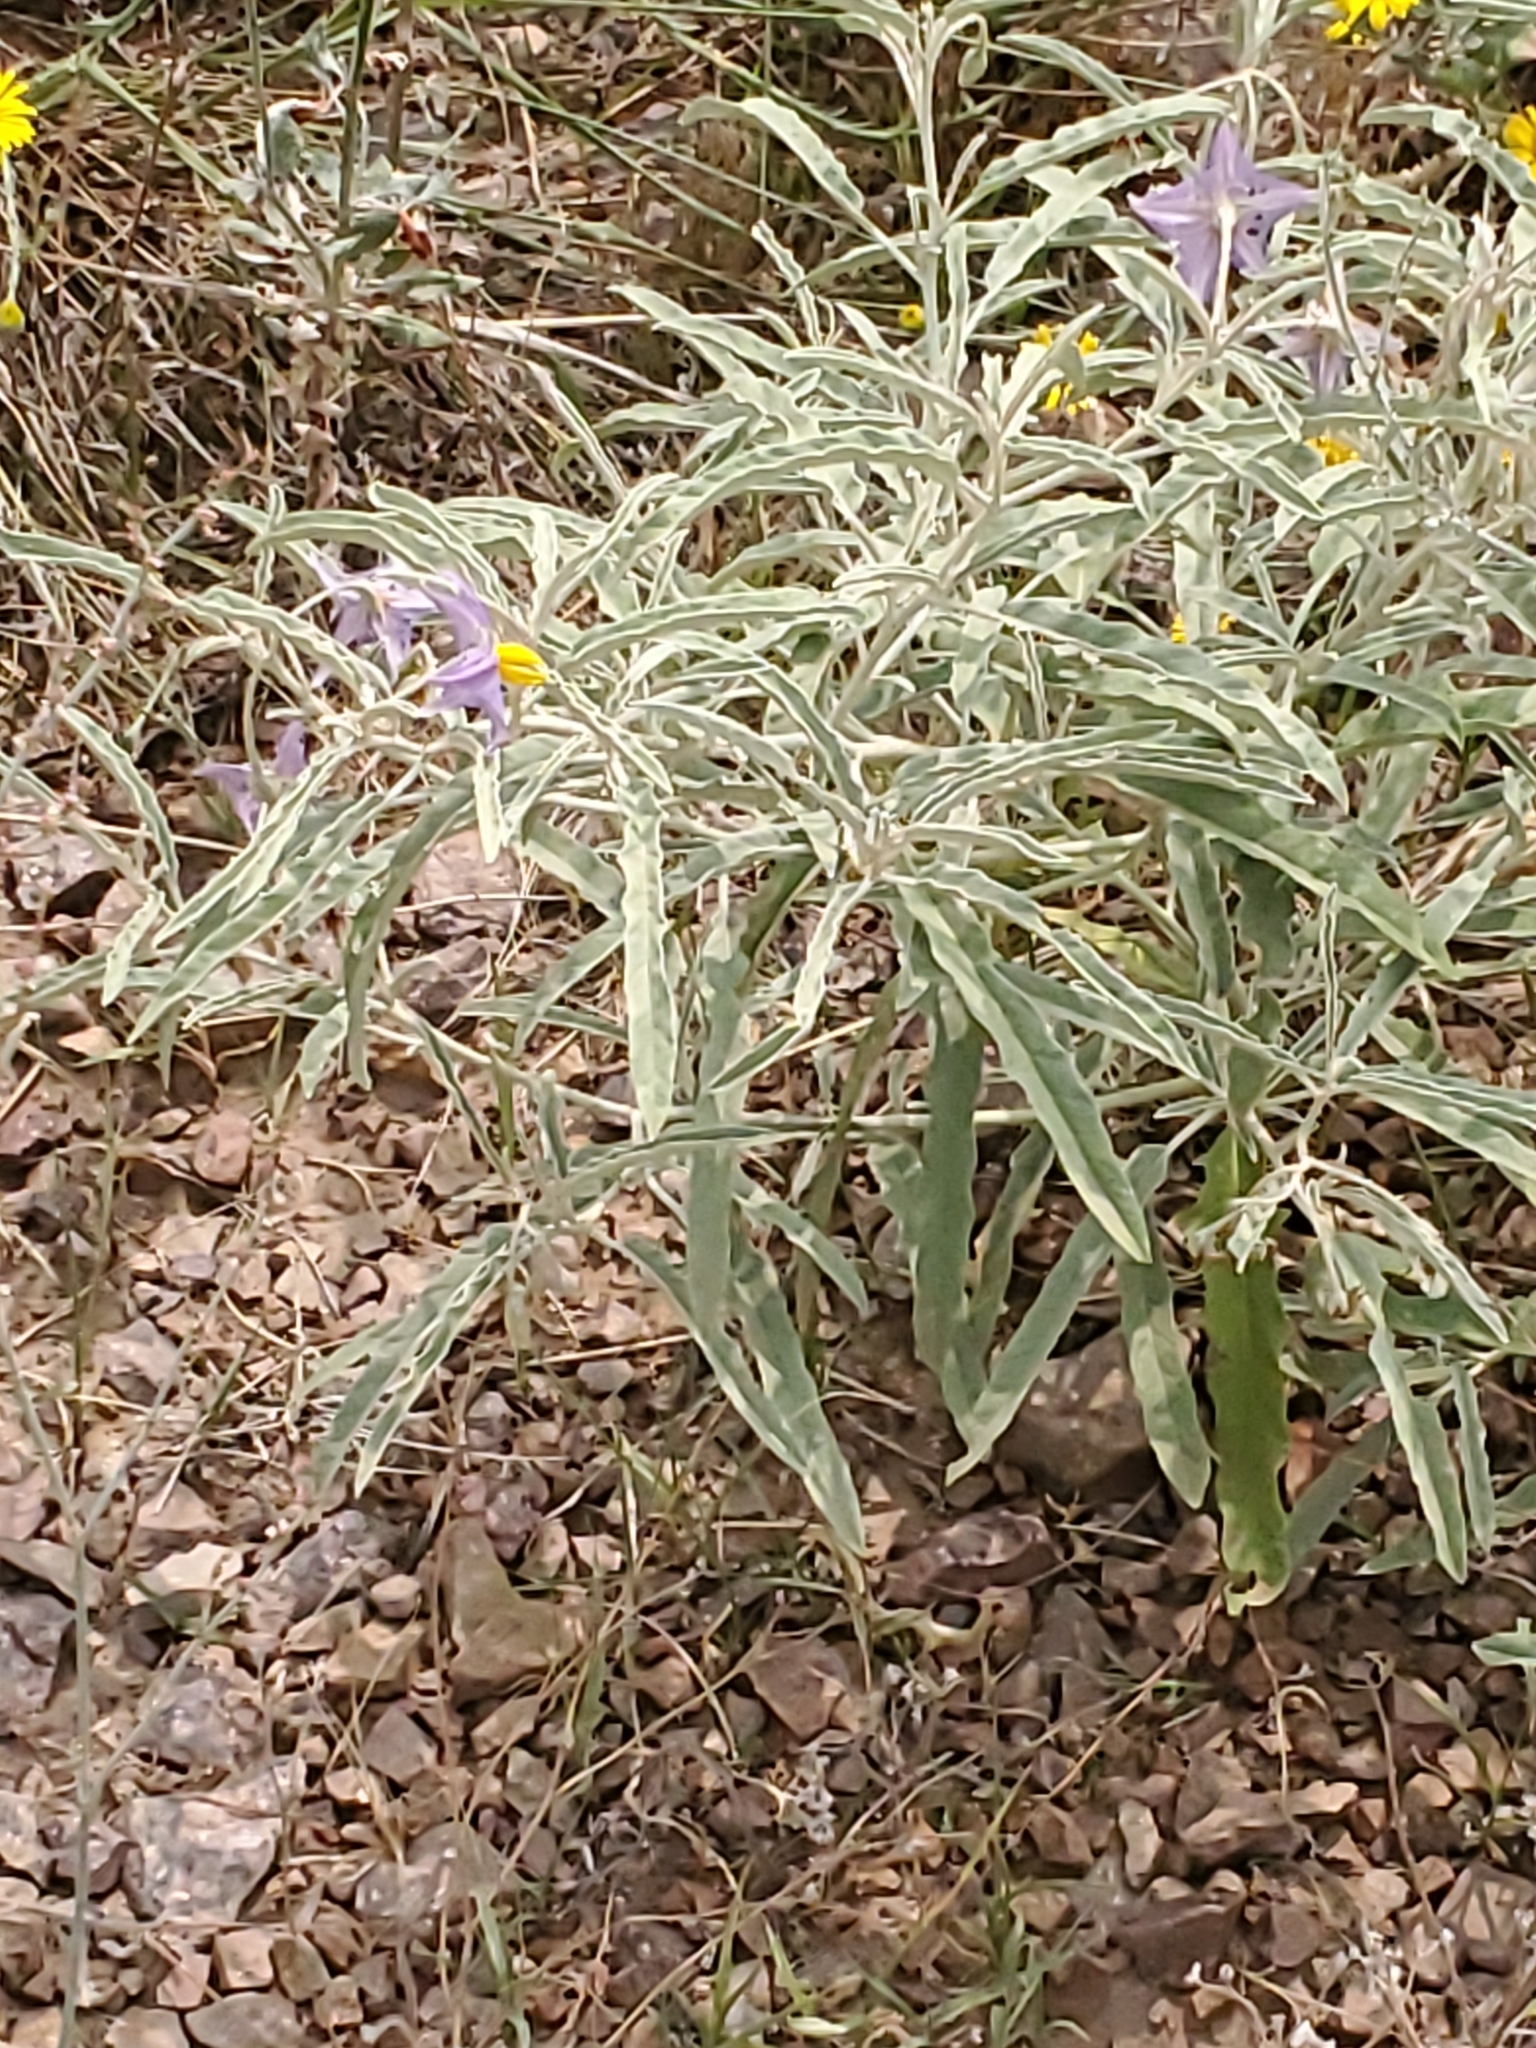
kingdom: Plantae
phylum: Tracheophyta
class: Magnoliopsida
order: Solanales
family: Solanaceae
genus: Solanum
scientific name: Solanum elaeagnifolium
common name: Silverleaf nightshade
